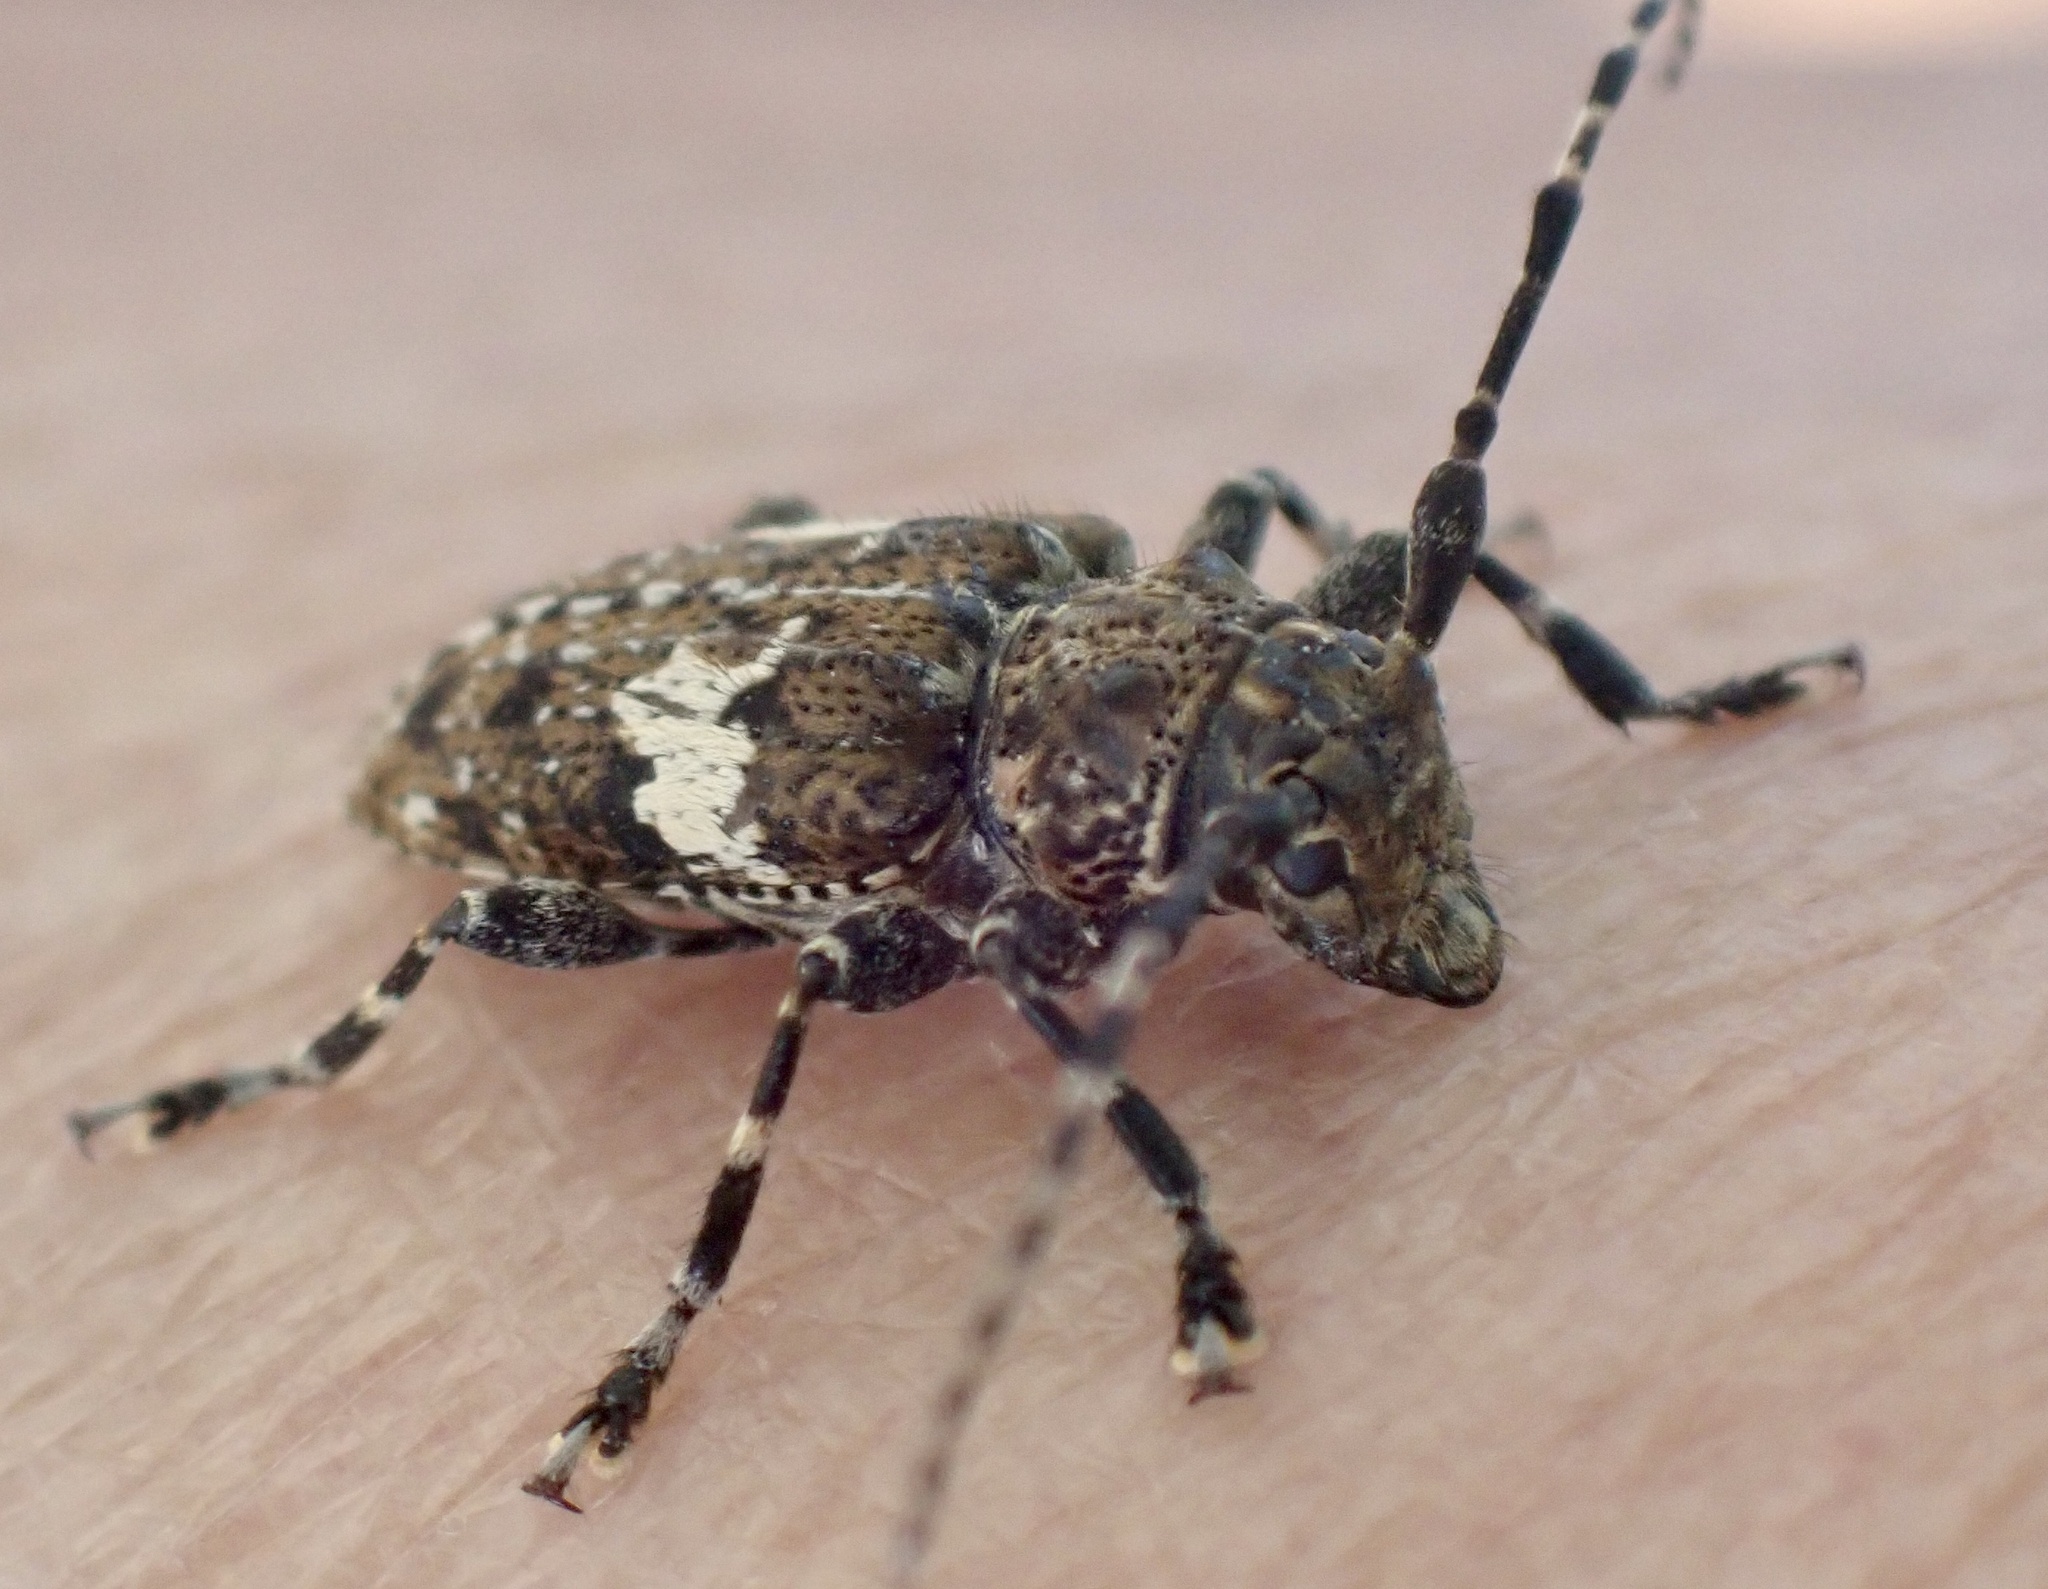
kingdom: Animalia
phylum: Arthropoda
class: Insecta
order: Coleoptera
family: Cerambycidae
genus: Acanthoderes
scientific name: Acanthoderes quadrigibba
